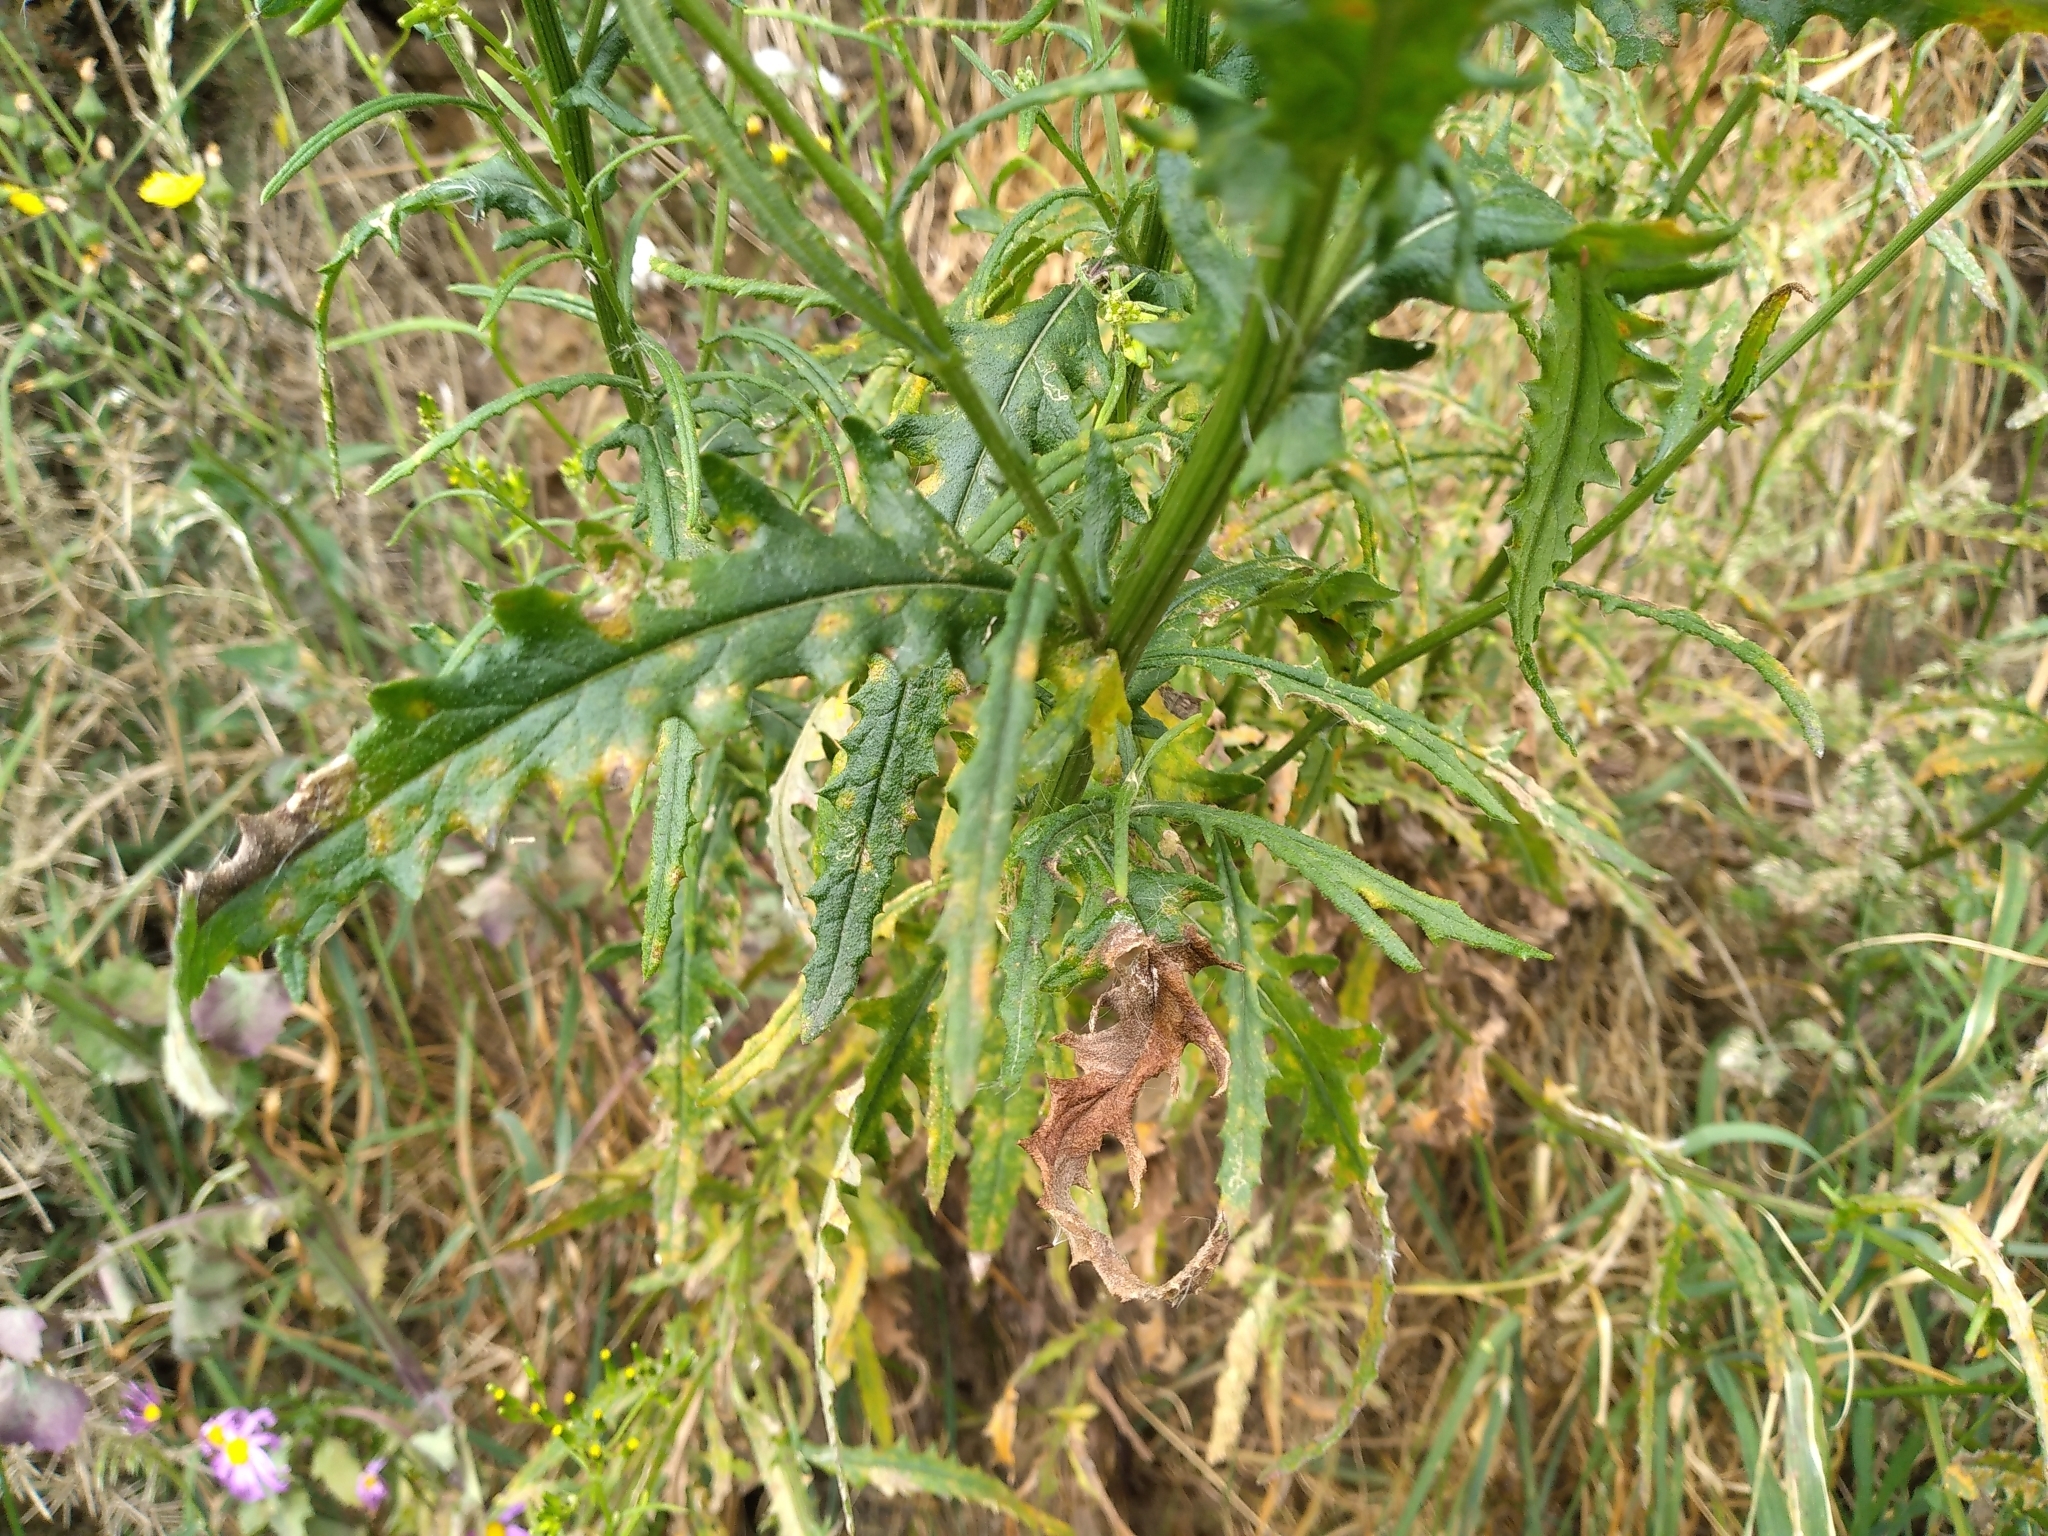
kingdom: Plantae
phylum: Tracheophyta
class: Magnoliopsida
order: Asterales
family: Asteraceae
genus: Senecio
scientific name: Senecio hispidulus
